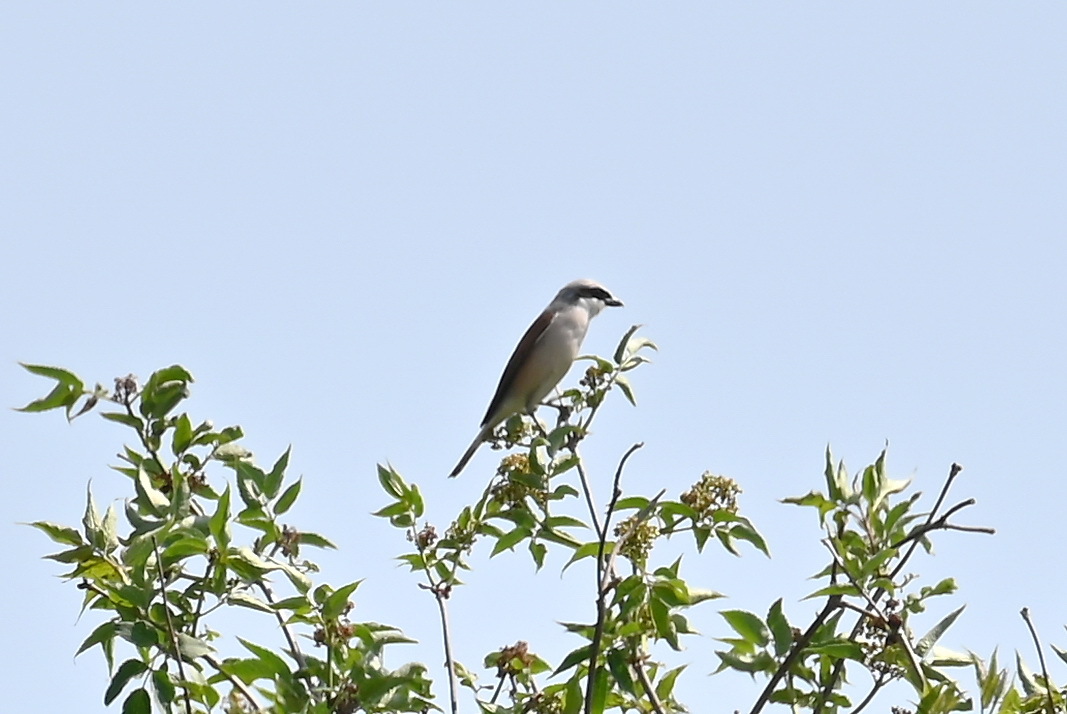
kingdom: Animalia
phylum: Chordata
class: Aves
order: Passeriformes
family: Laniidae
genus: Lanius
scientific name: Lanius excubitor
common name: Great grey shrike
